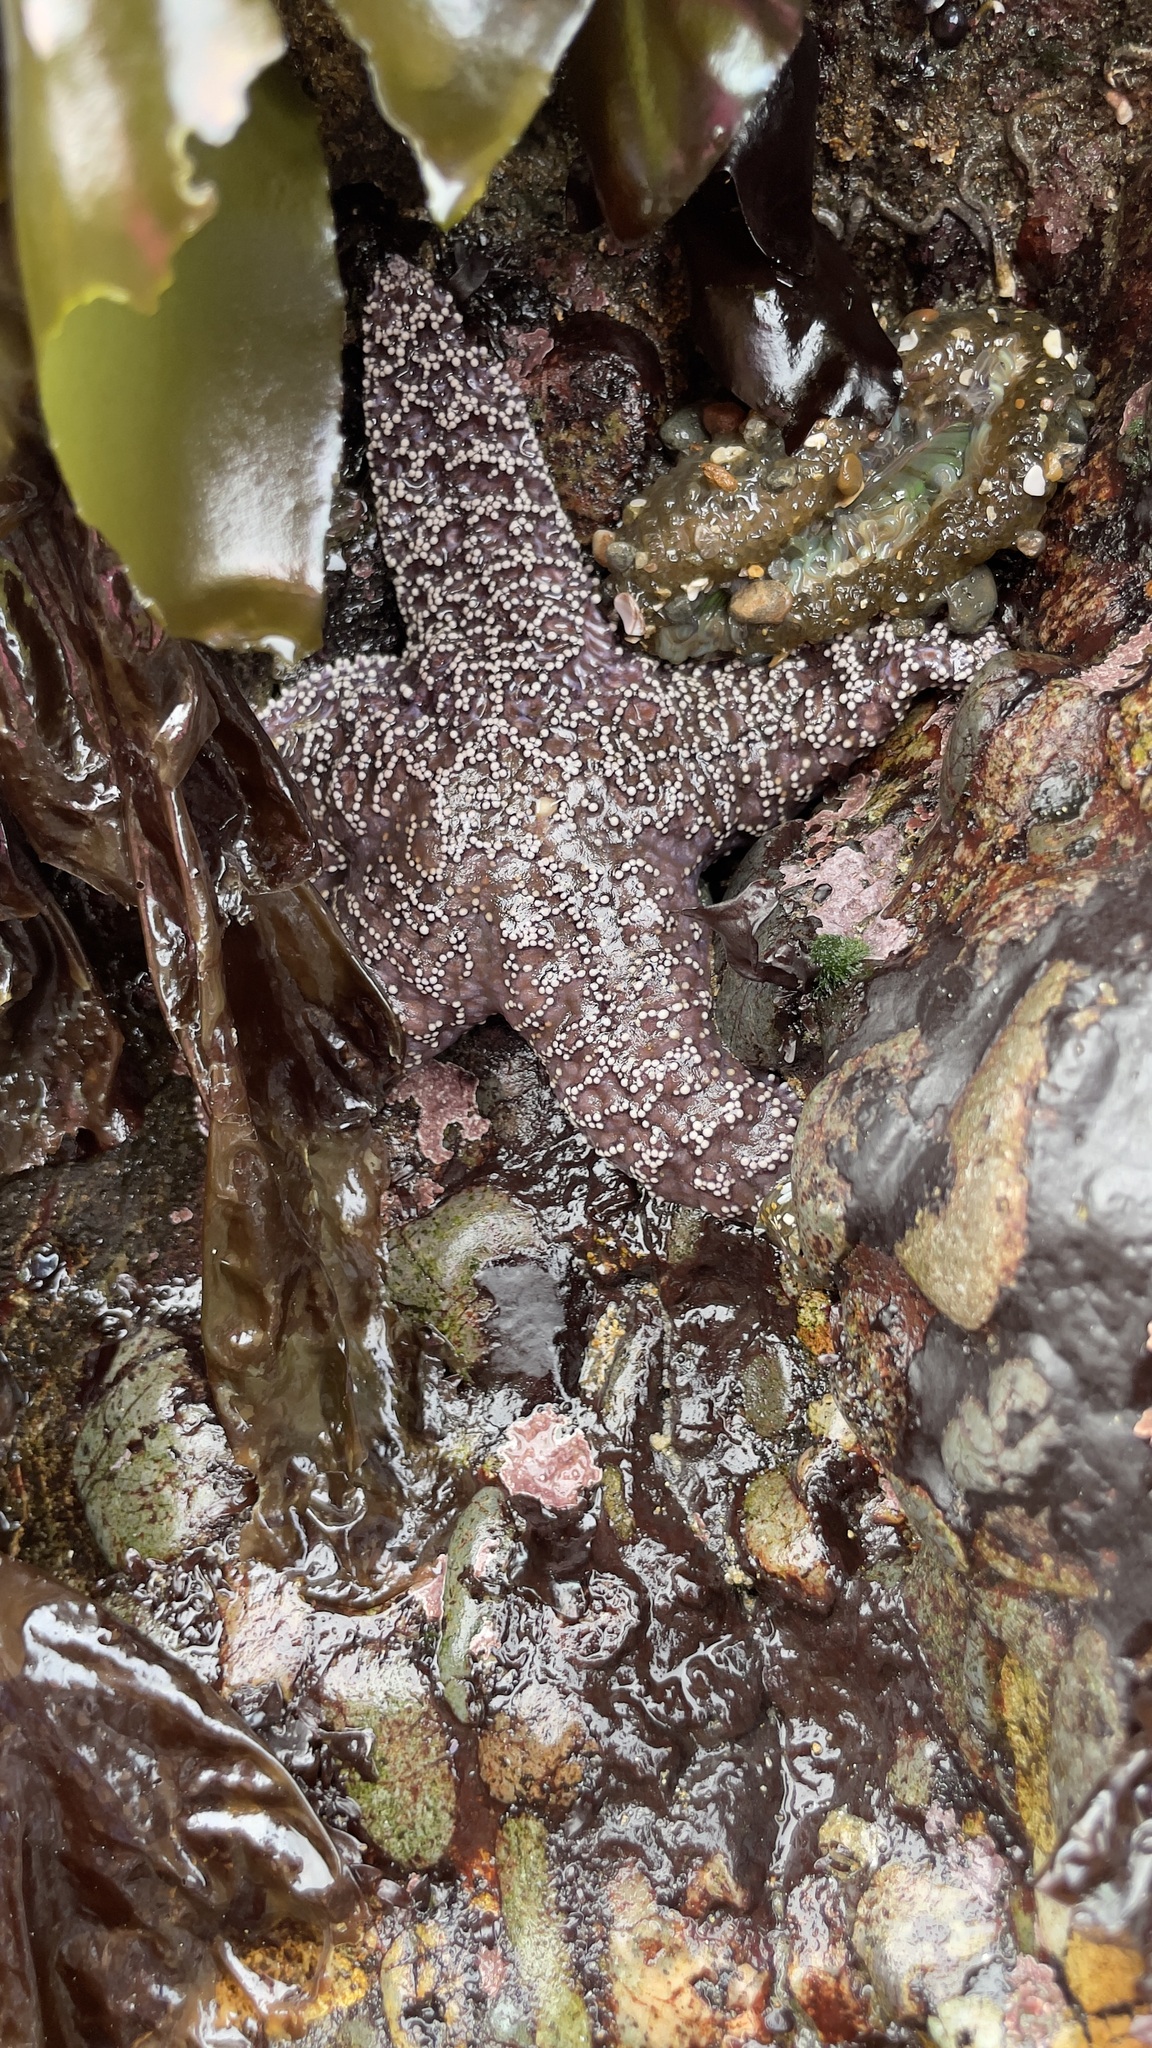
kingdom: Animalia
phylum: Echinodermata
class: Asteroidea
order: Forcipulatida
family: Asteriidae
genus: Pisaster
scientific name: Pisaster ochraceus
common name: Ochre stars
